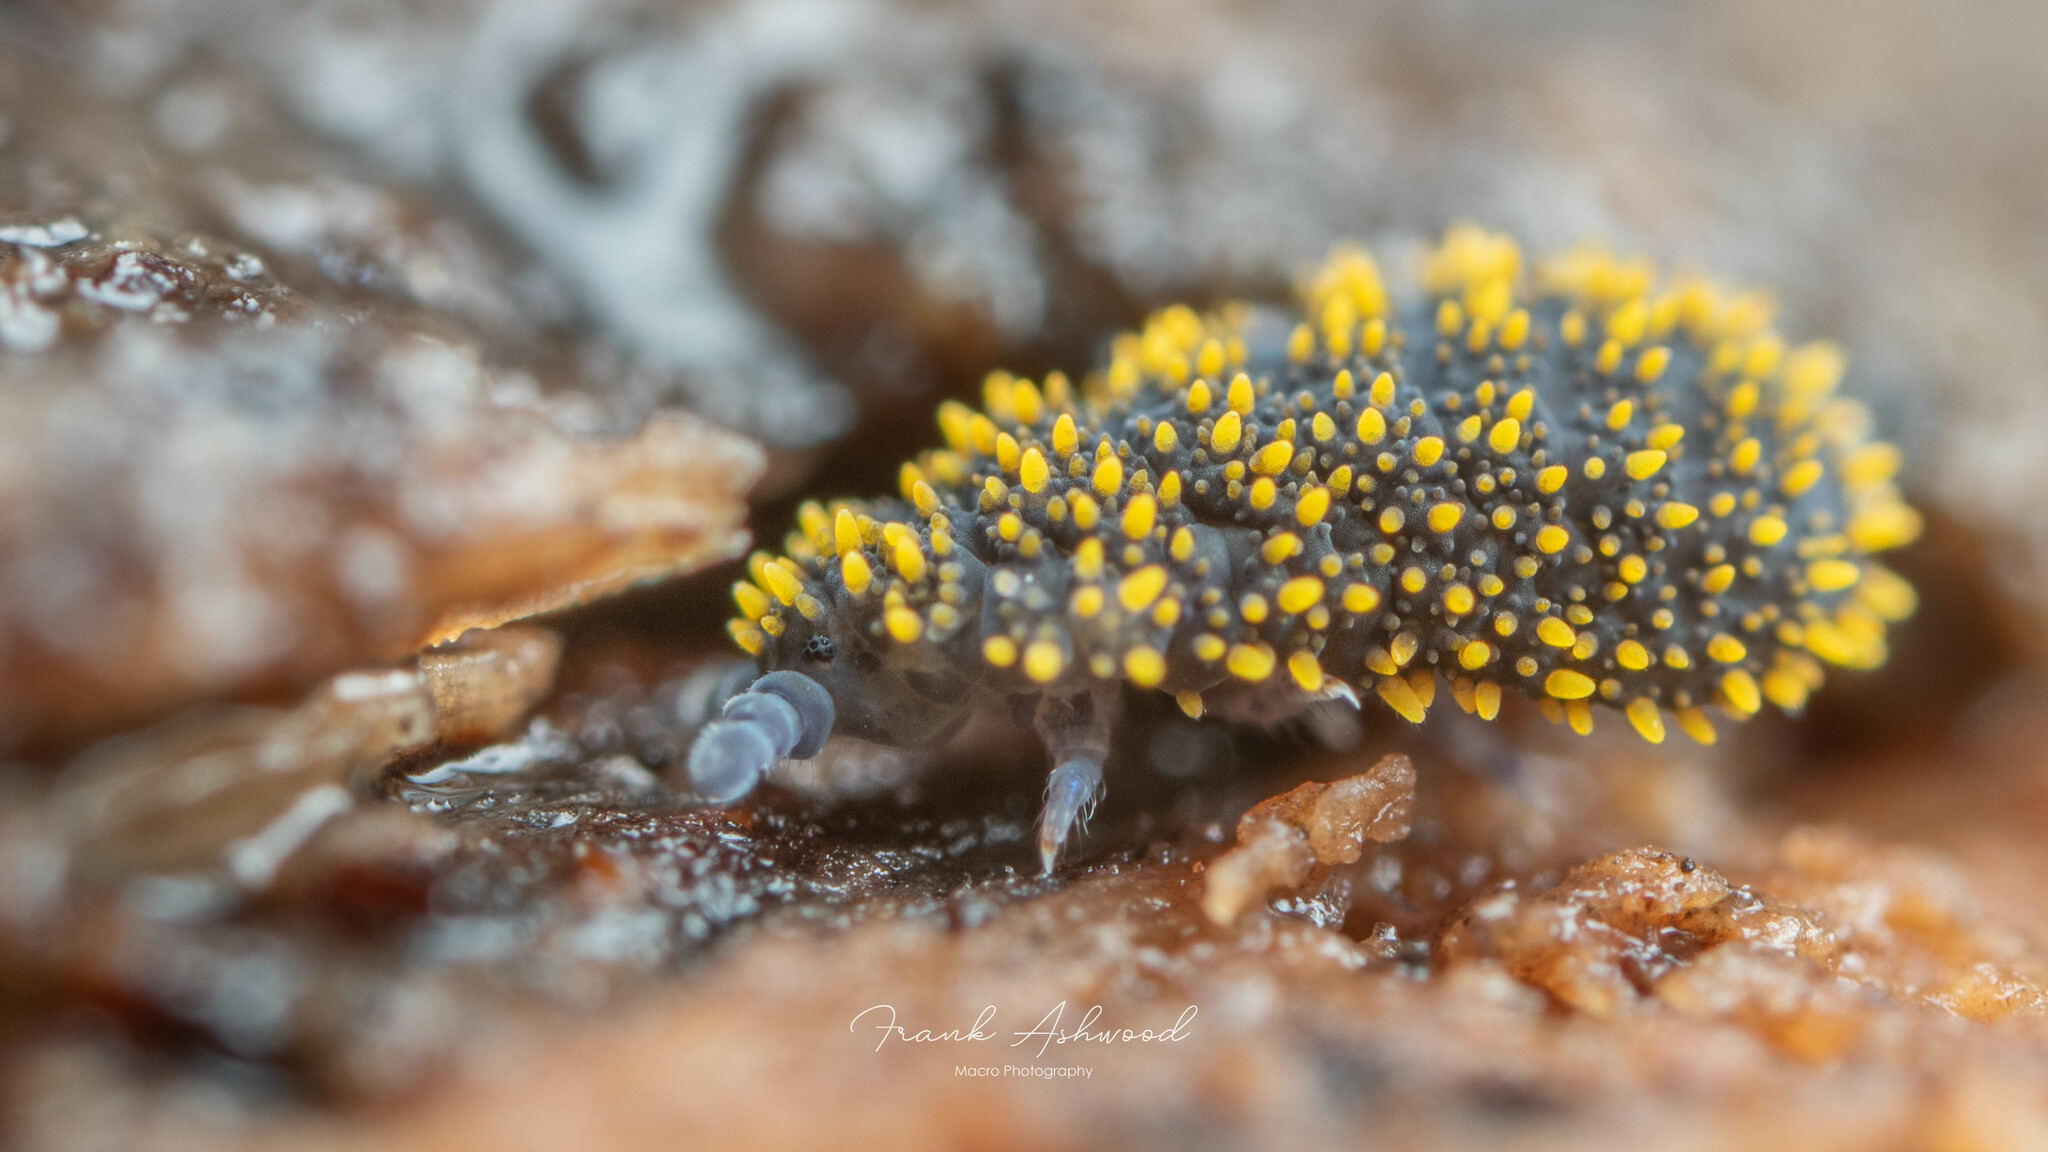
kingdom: Animalia
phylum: Arthropoda
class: Collembola
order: Poduromorpha
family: Neanuridae
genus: Holacanthella
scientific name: Holacanthella spinosa
